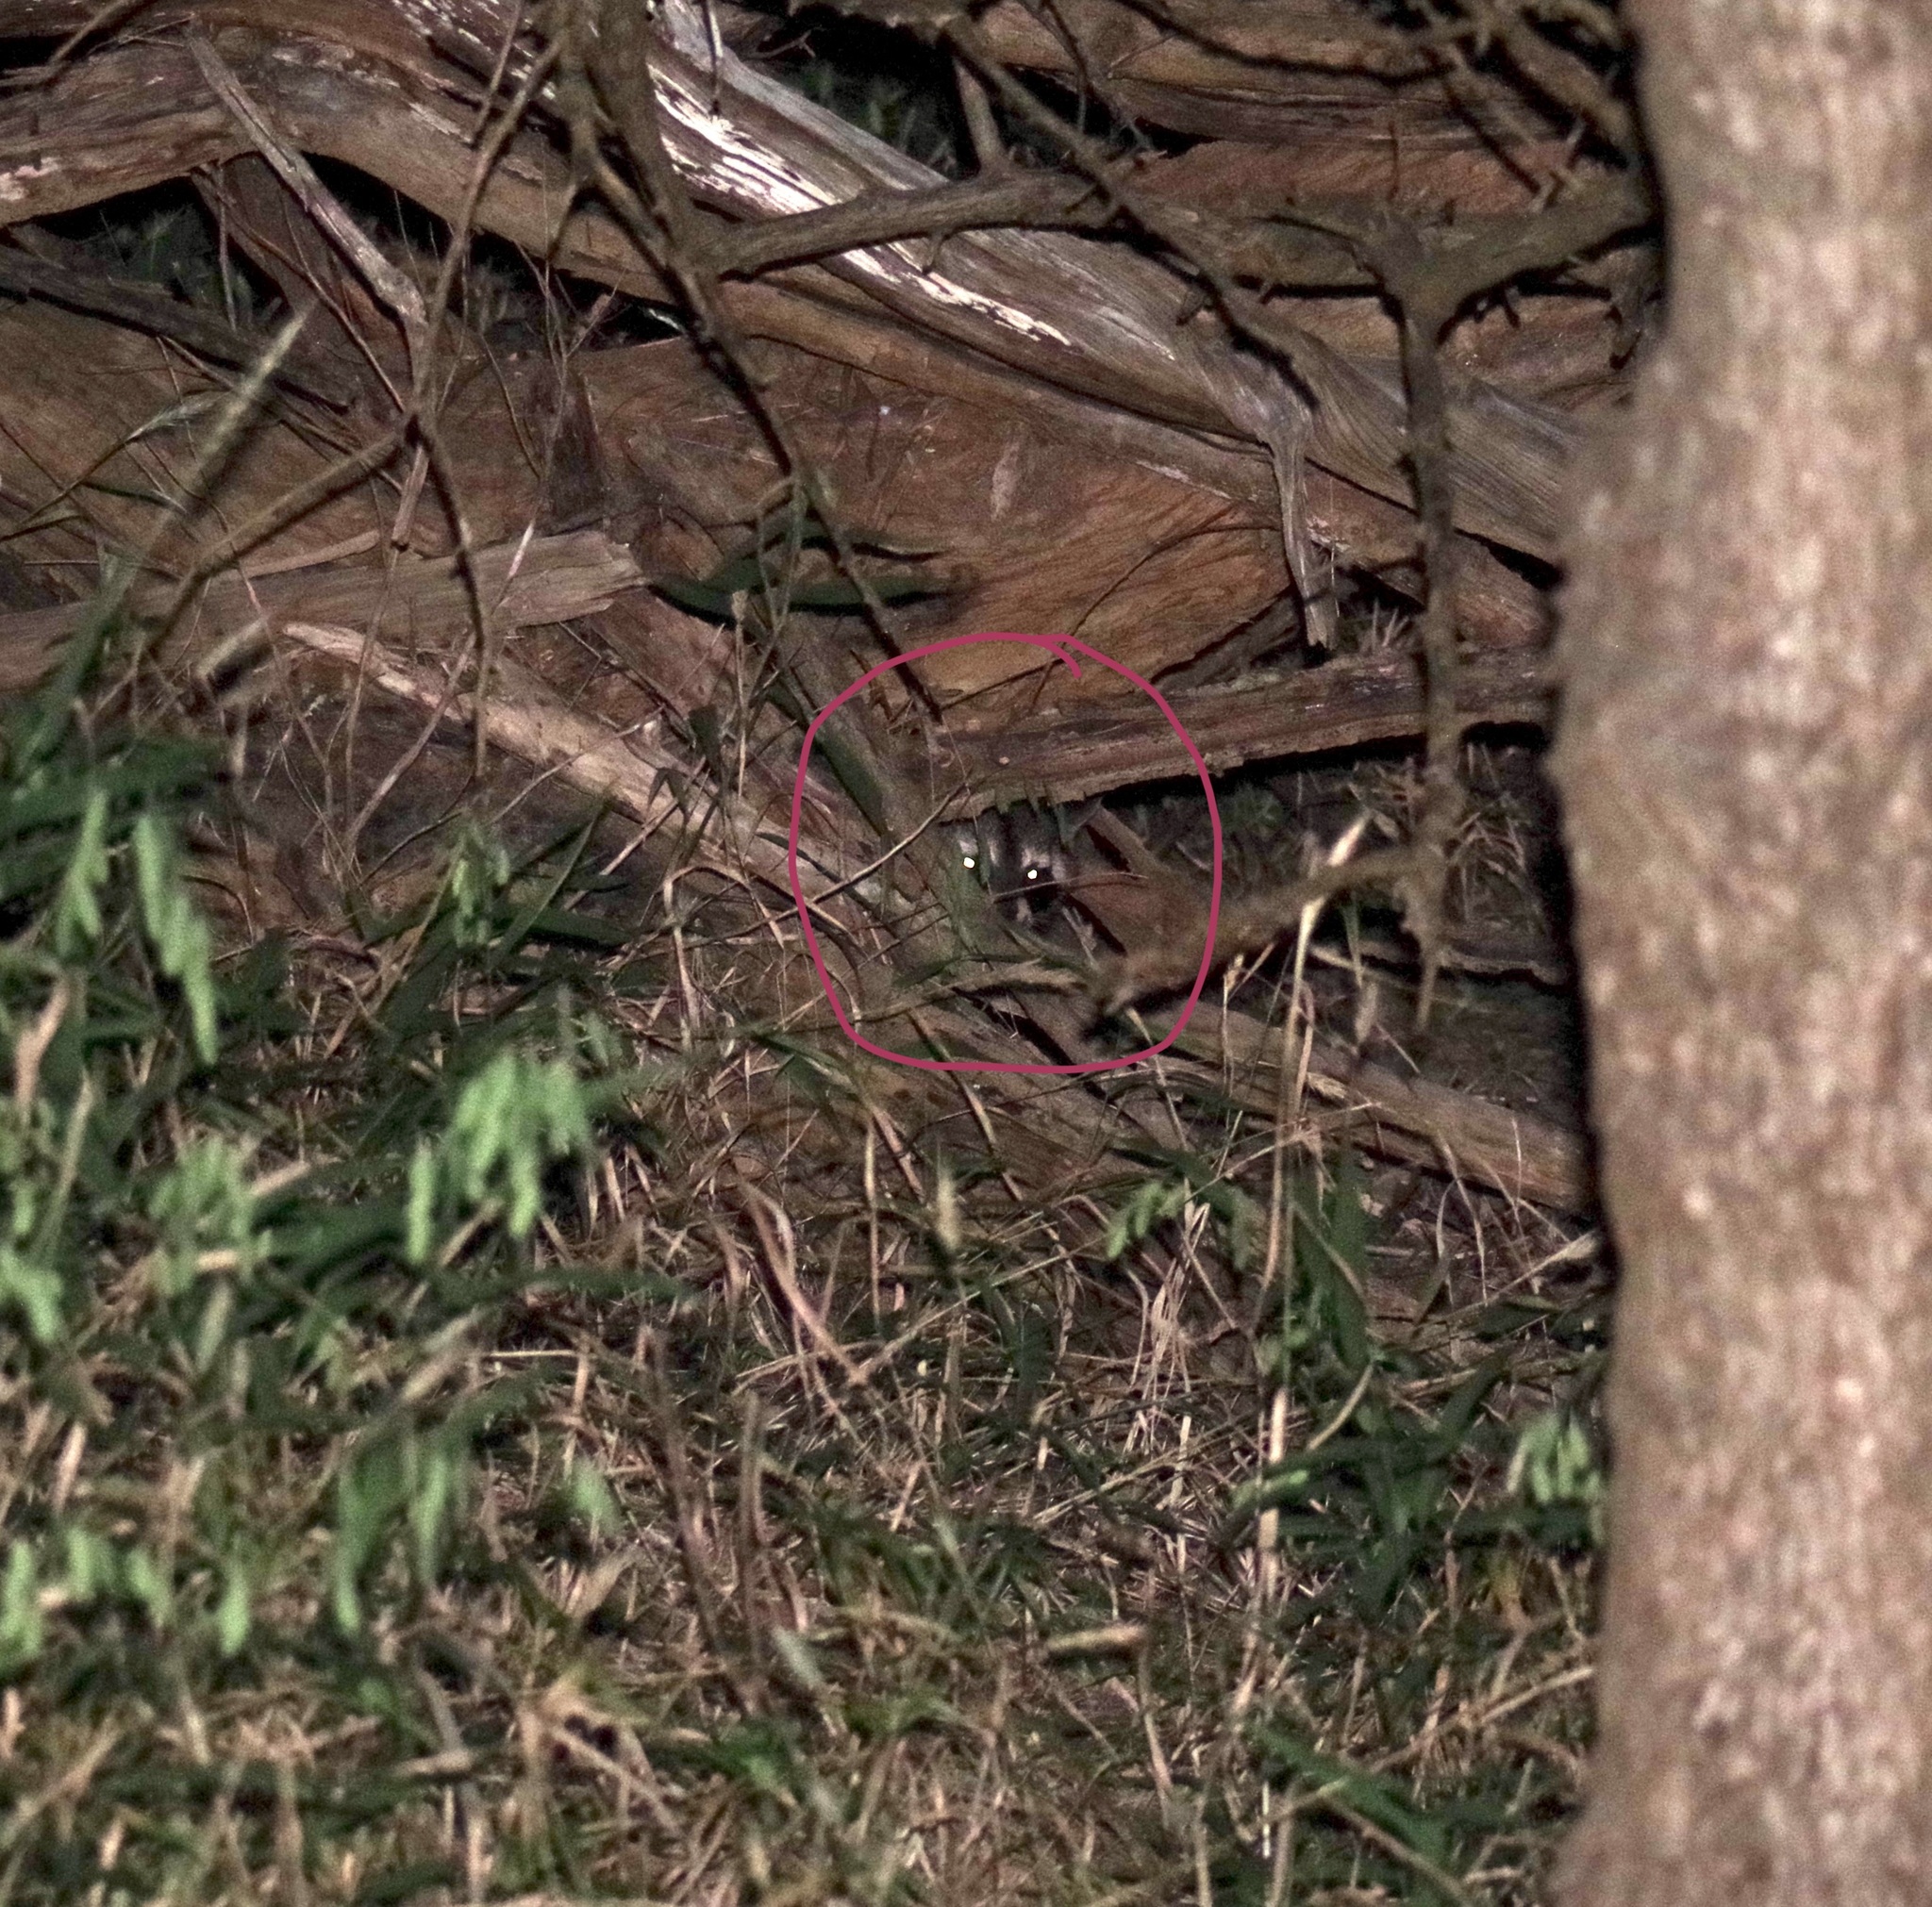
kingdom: Animalia
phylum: Chordata
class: Mammalia
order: Carnivora
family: Procyonidae
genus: Procyon
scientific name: Procyon lotor
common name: Raccoon
